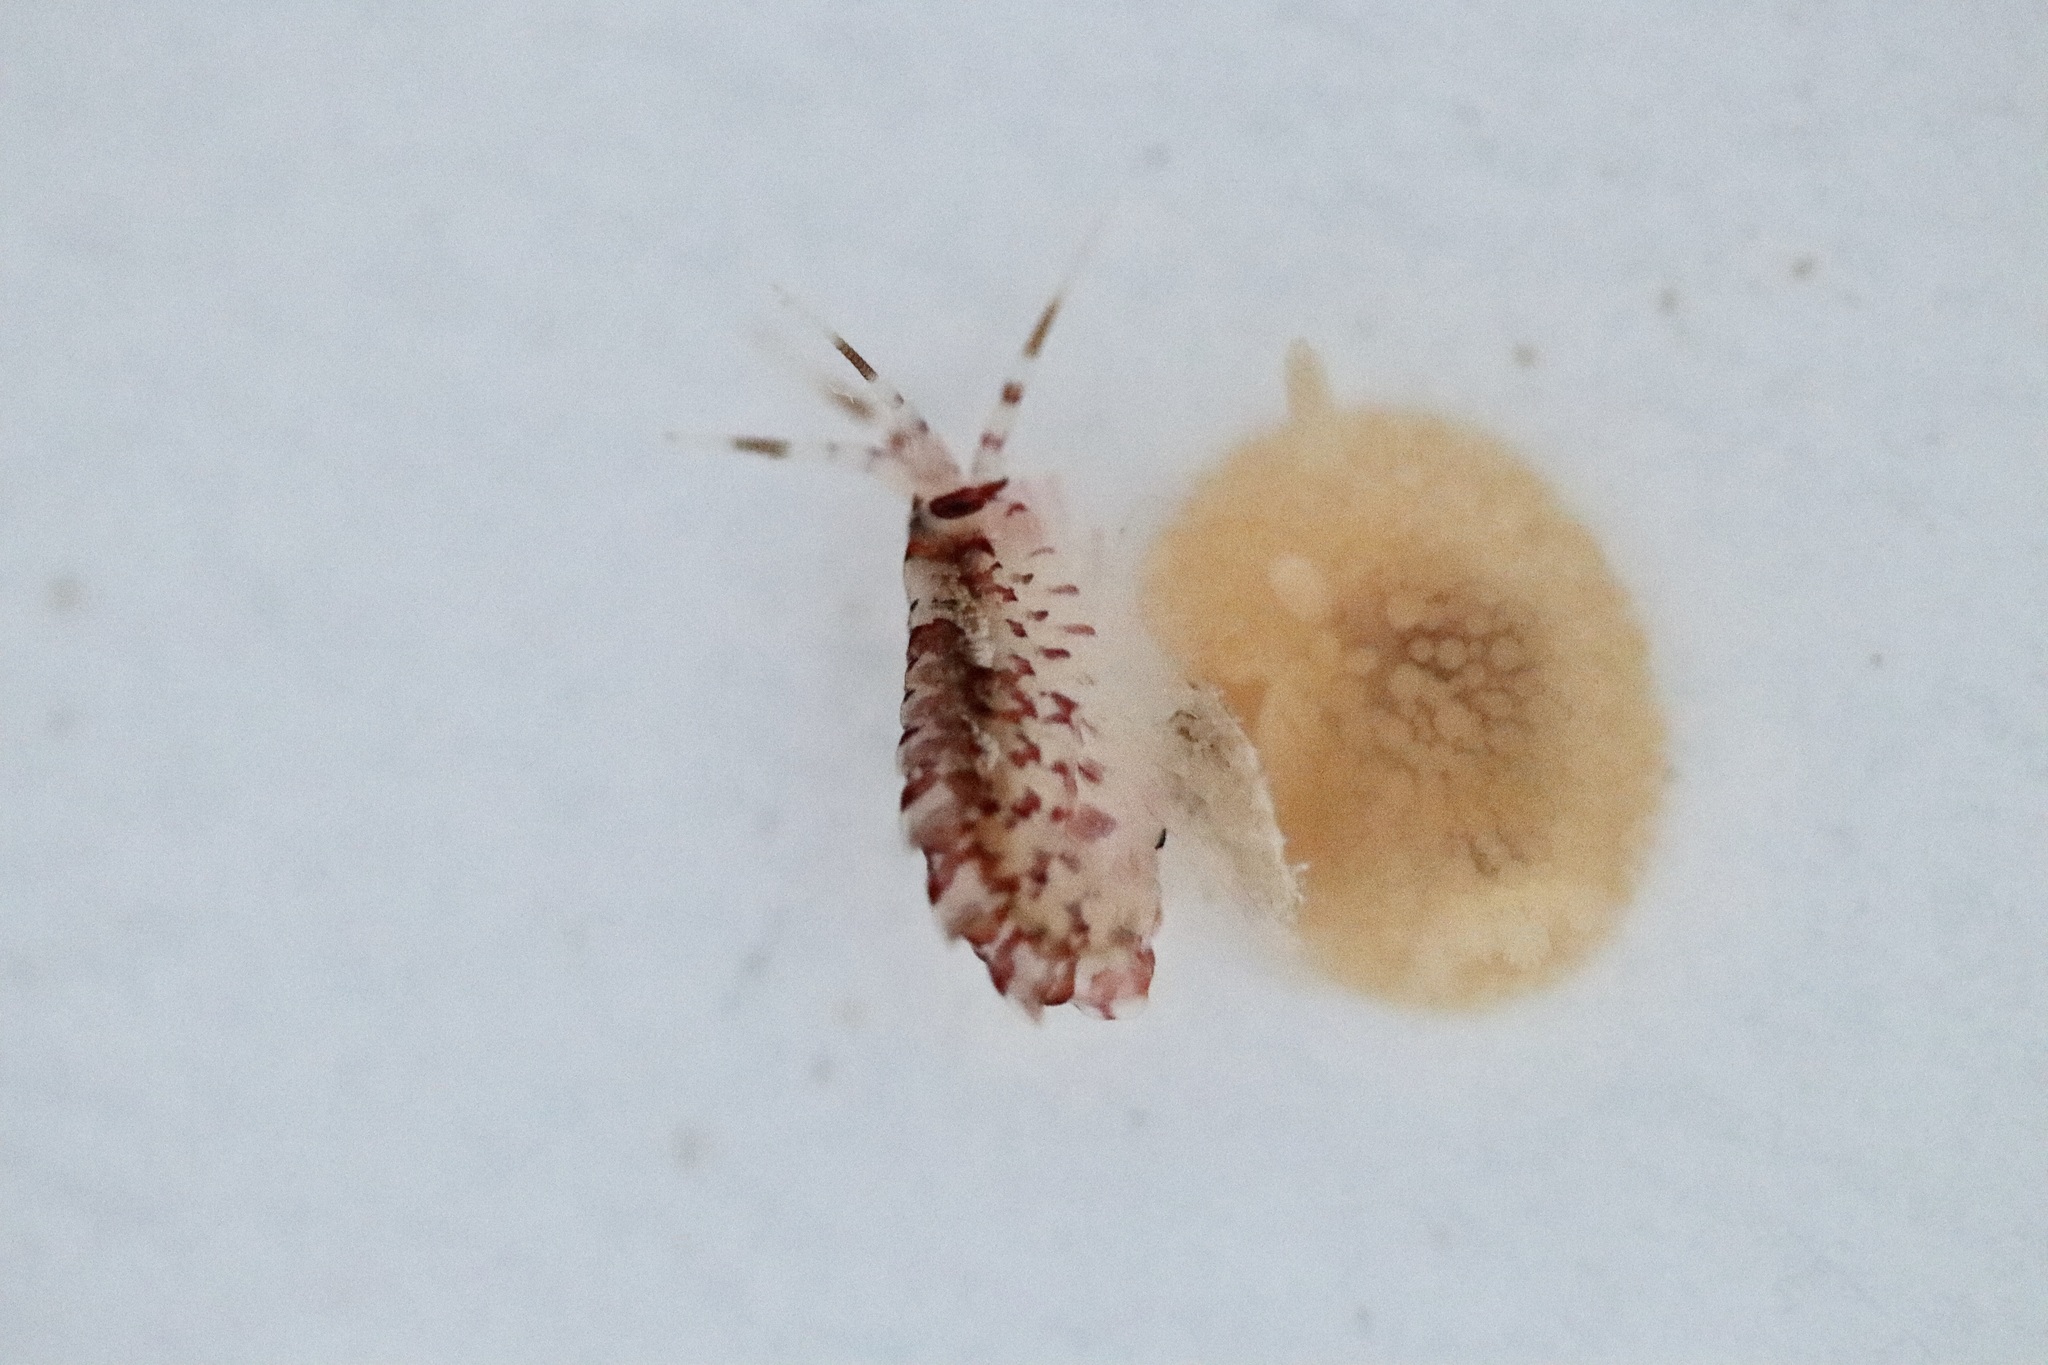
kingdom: Animalia
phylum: Arthropoda
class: Malacostraca
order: Amphipoda
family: Eusiridae
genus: Eusirus
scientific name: Eusirus cuspidatus
